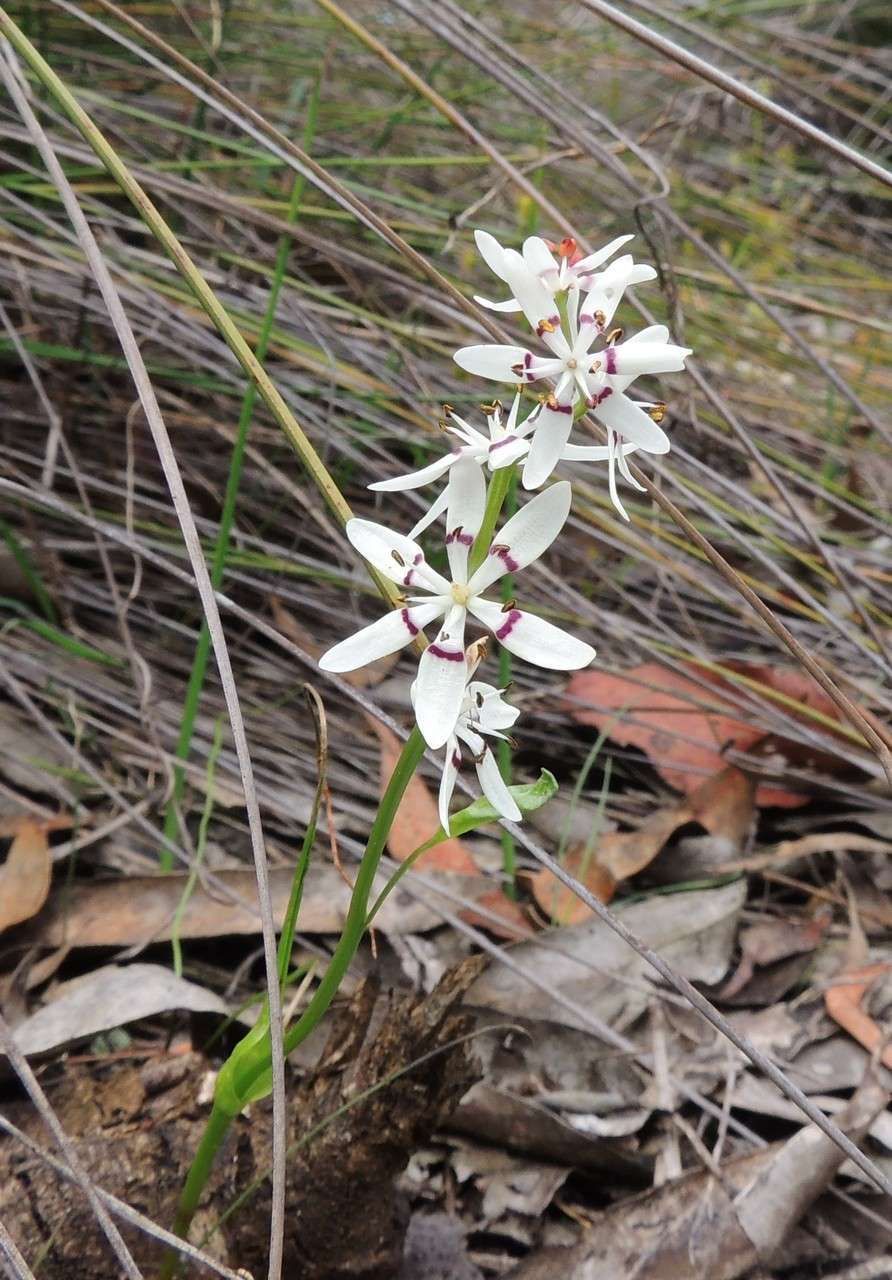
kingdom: Plantae
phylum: Tracheophyta
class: Liliopsida
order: Liliales
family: Colchicaceae
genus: Wurmbea
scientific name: Wurmbea dioica
